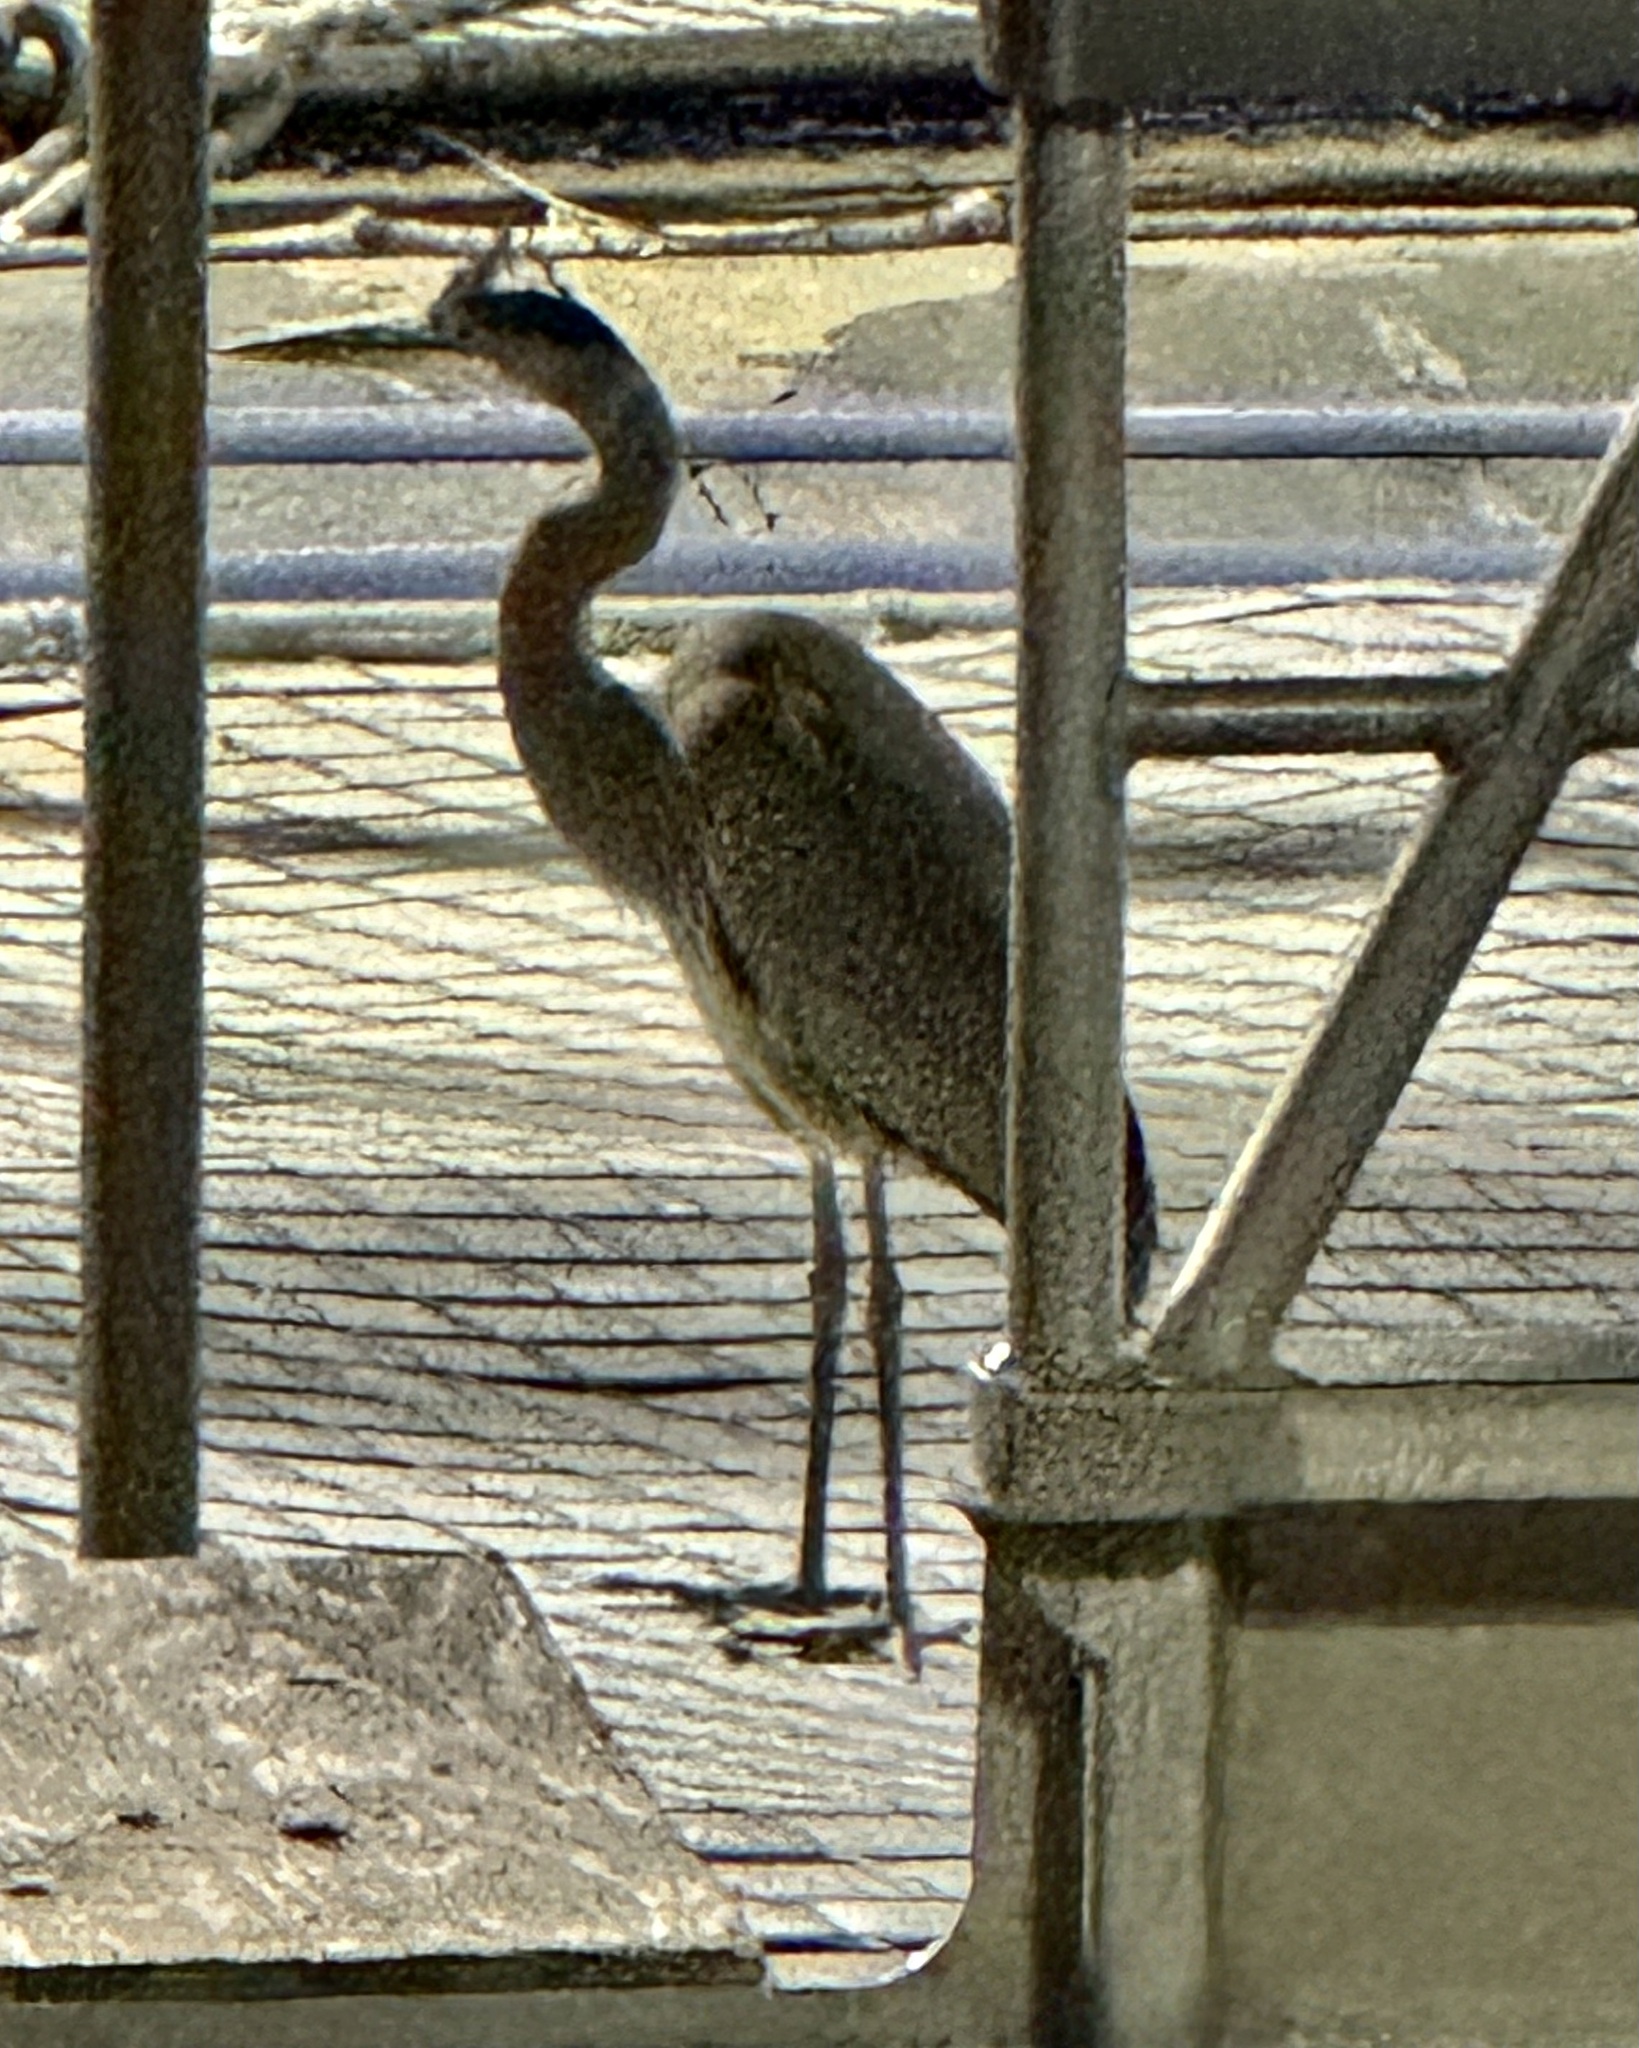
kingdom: Animalia
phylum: Chordata
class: Aves
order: Pelecaniformes
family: Ardeidae
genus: Ardea
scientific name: Ardea herodias
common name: Great blue heron
